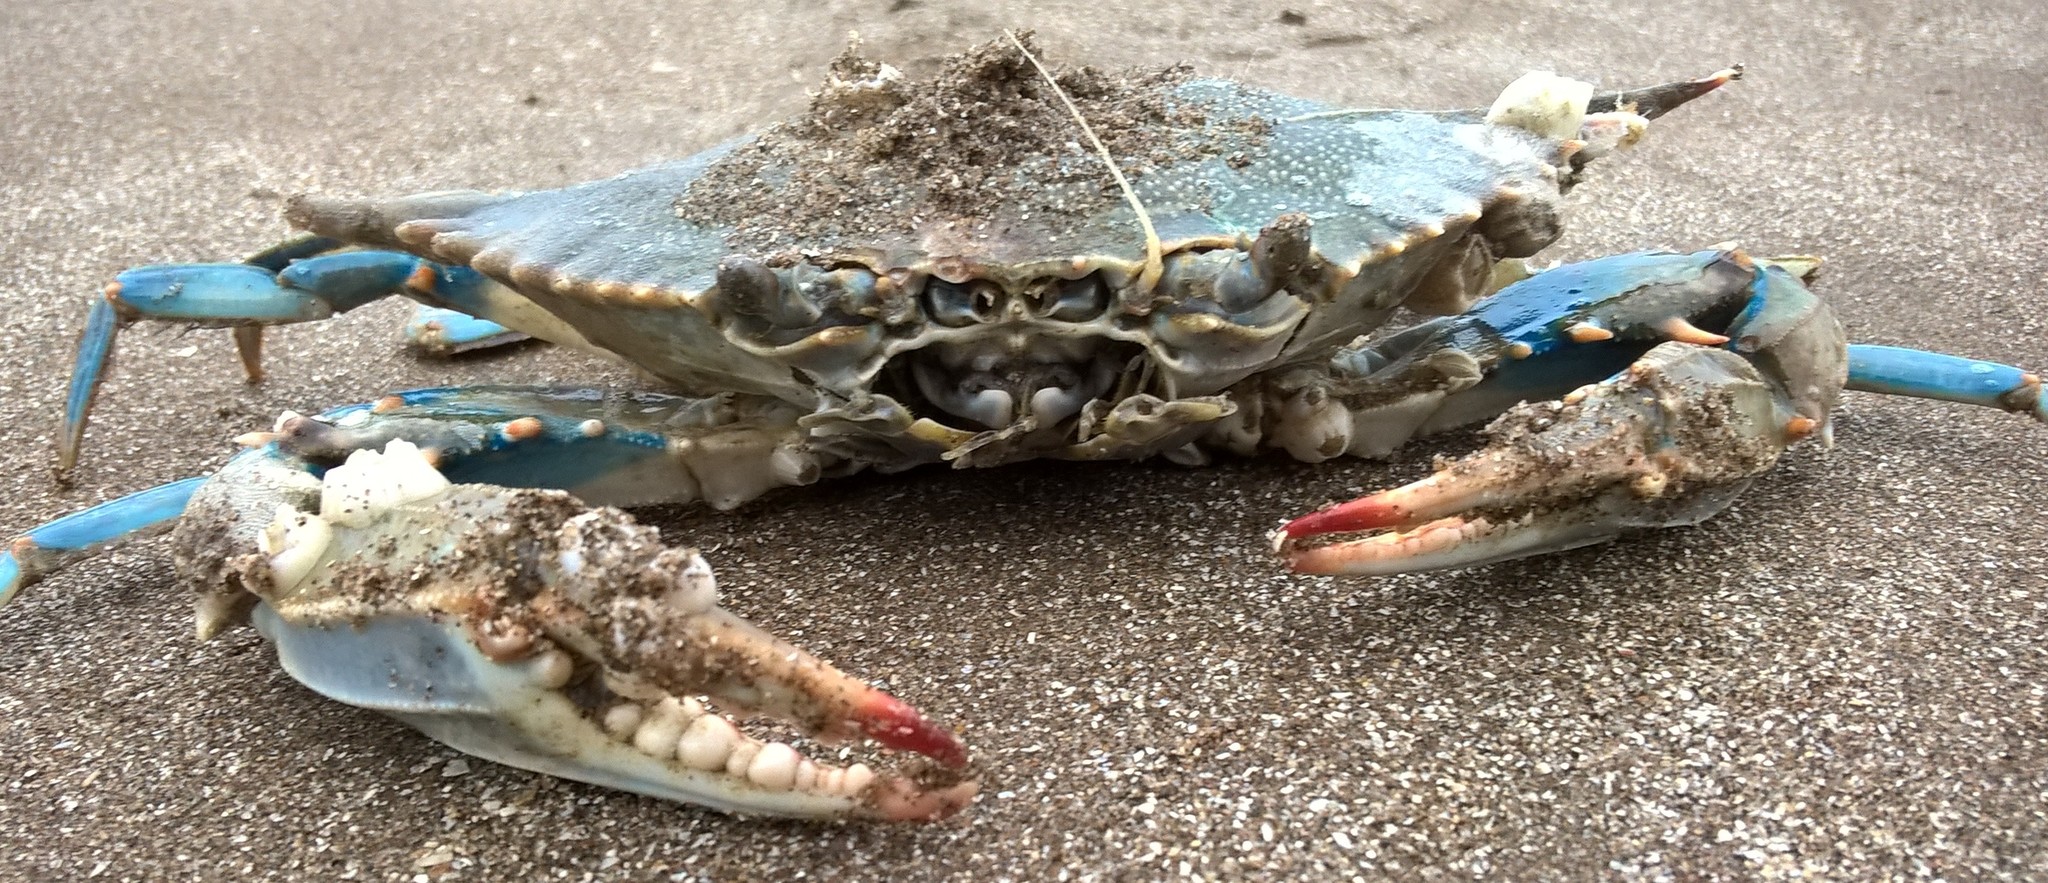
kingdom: Animalia
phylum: Arthropoda
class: Malacostraca
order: Decapoda
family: Portunidae
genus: Callinectes
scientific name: Callinectes sapidus
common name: Blue crab
